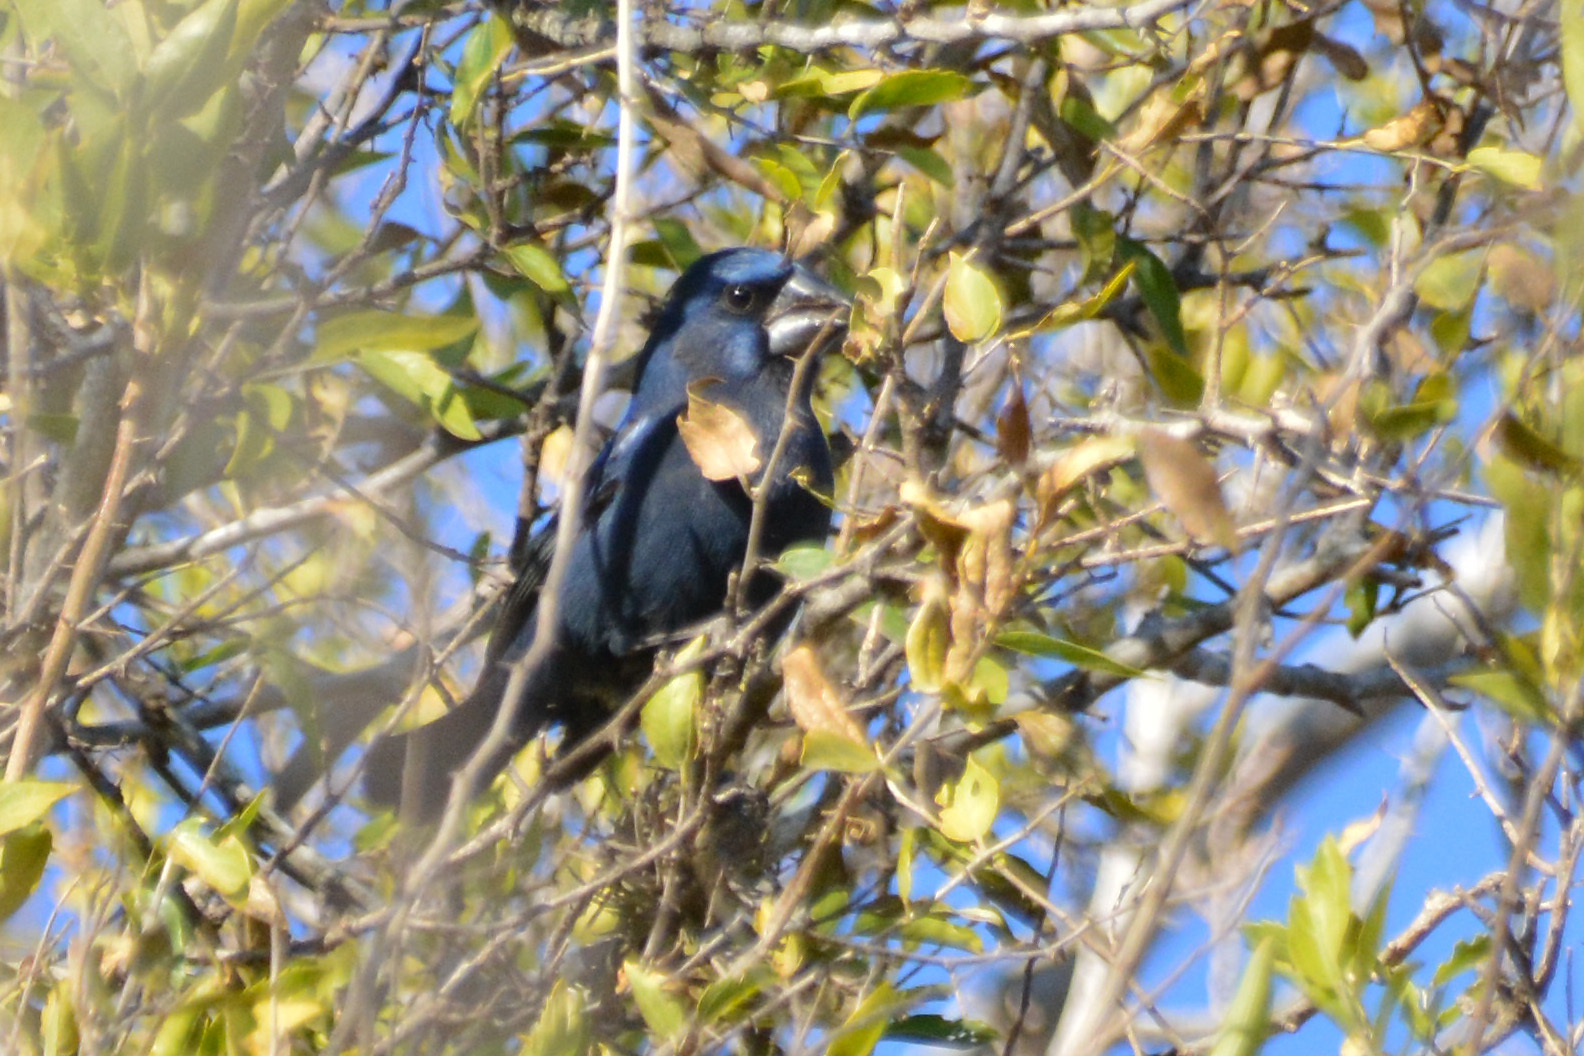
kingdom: Animalia
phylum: Chordata
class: Aves
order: Passeriformes
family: Cardinalidae
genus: Cyanoloxia
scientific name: Cyanoloxia brissonii
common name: Ultramarine grosbeak
